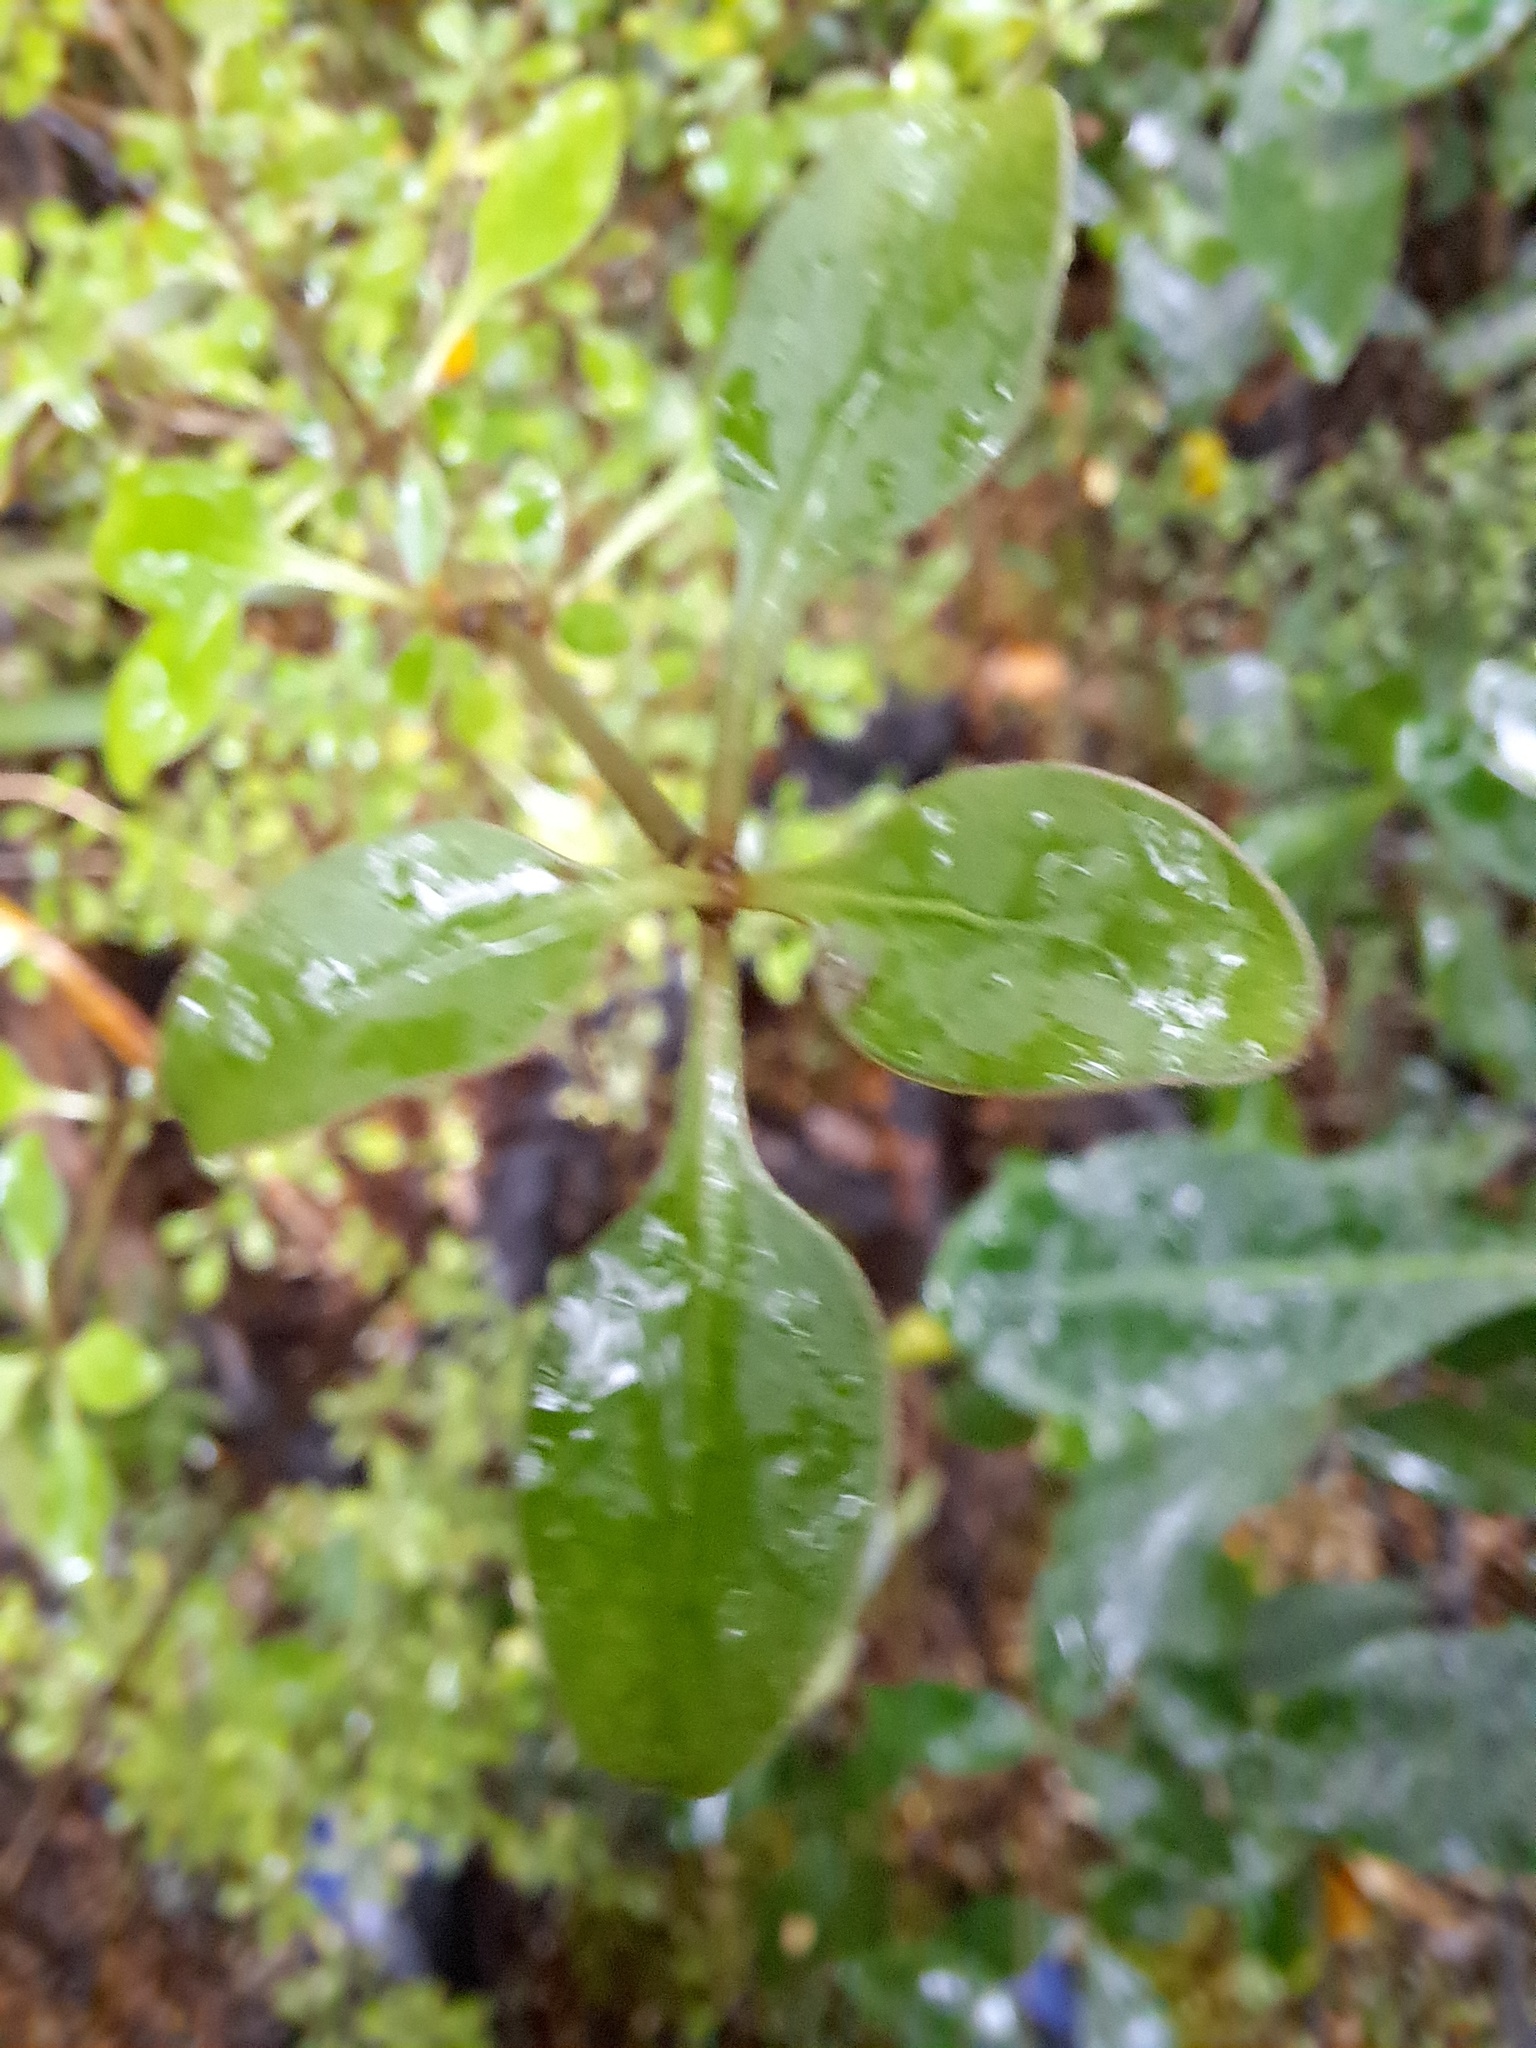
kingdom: Plantae
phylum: Tracheophyta
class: Magnoliopsida
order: Gentianales
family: Rubiaceae
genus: Coprosma
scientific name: Coprosma foetidissima
